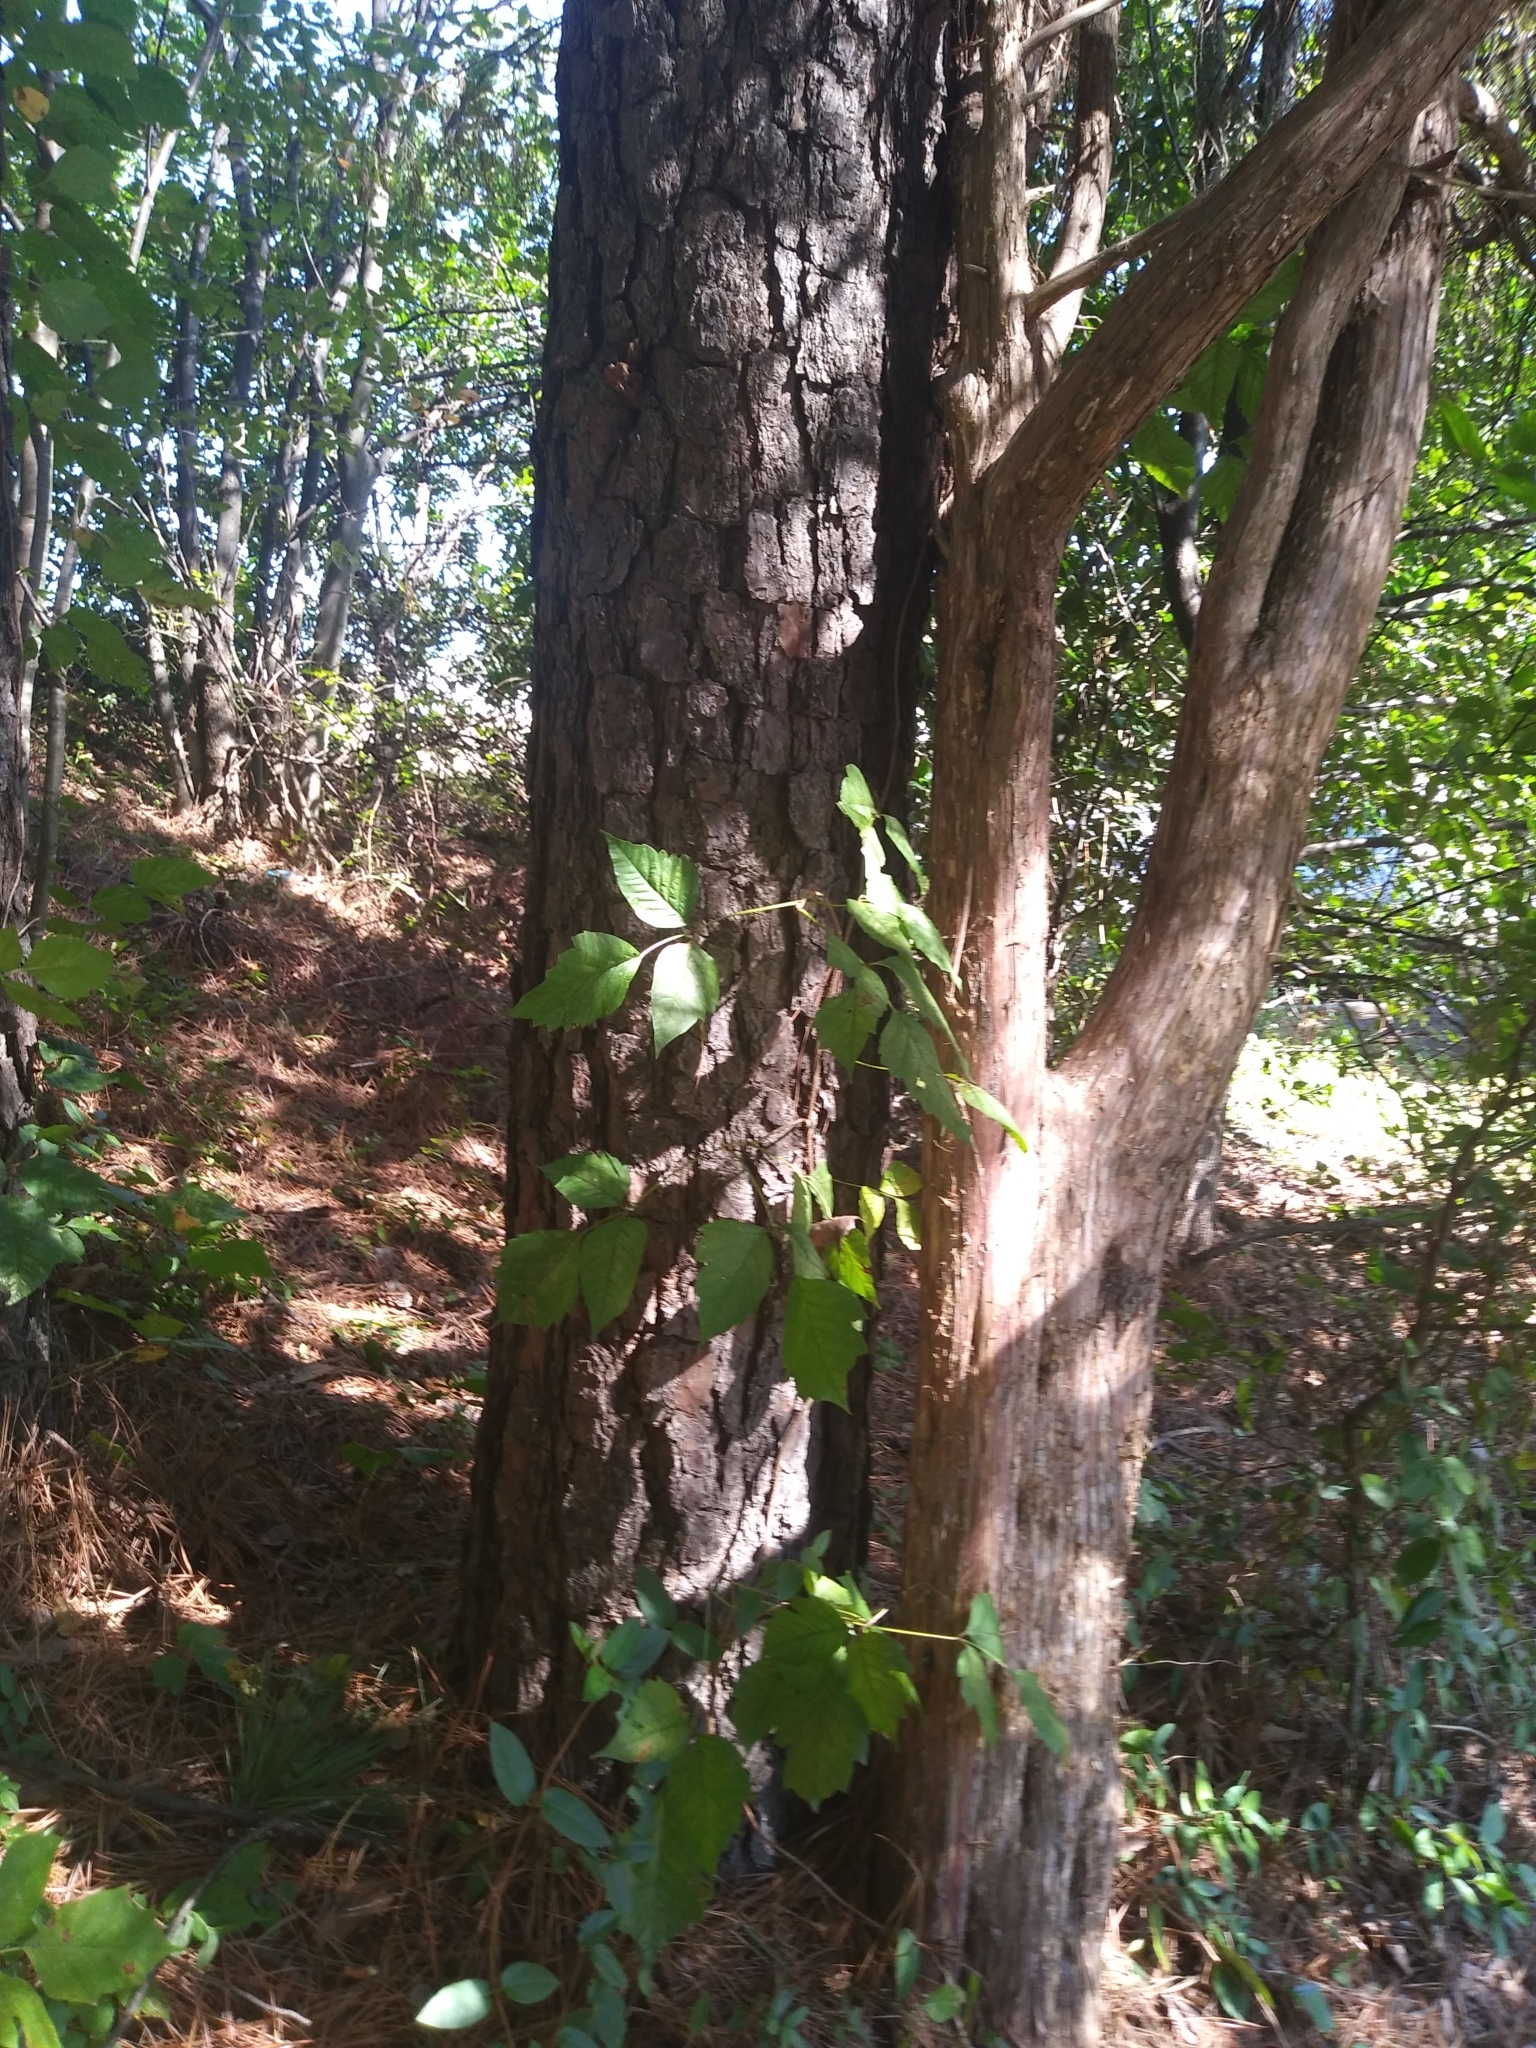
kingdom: Plantae
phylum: Tracheophyta
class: Magnoliopsida
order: Sapindales
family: Anacardiaceae
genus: Toxicodendron
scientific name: Toxicodendron radicans
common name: Poison ivy
